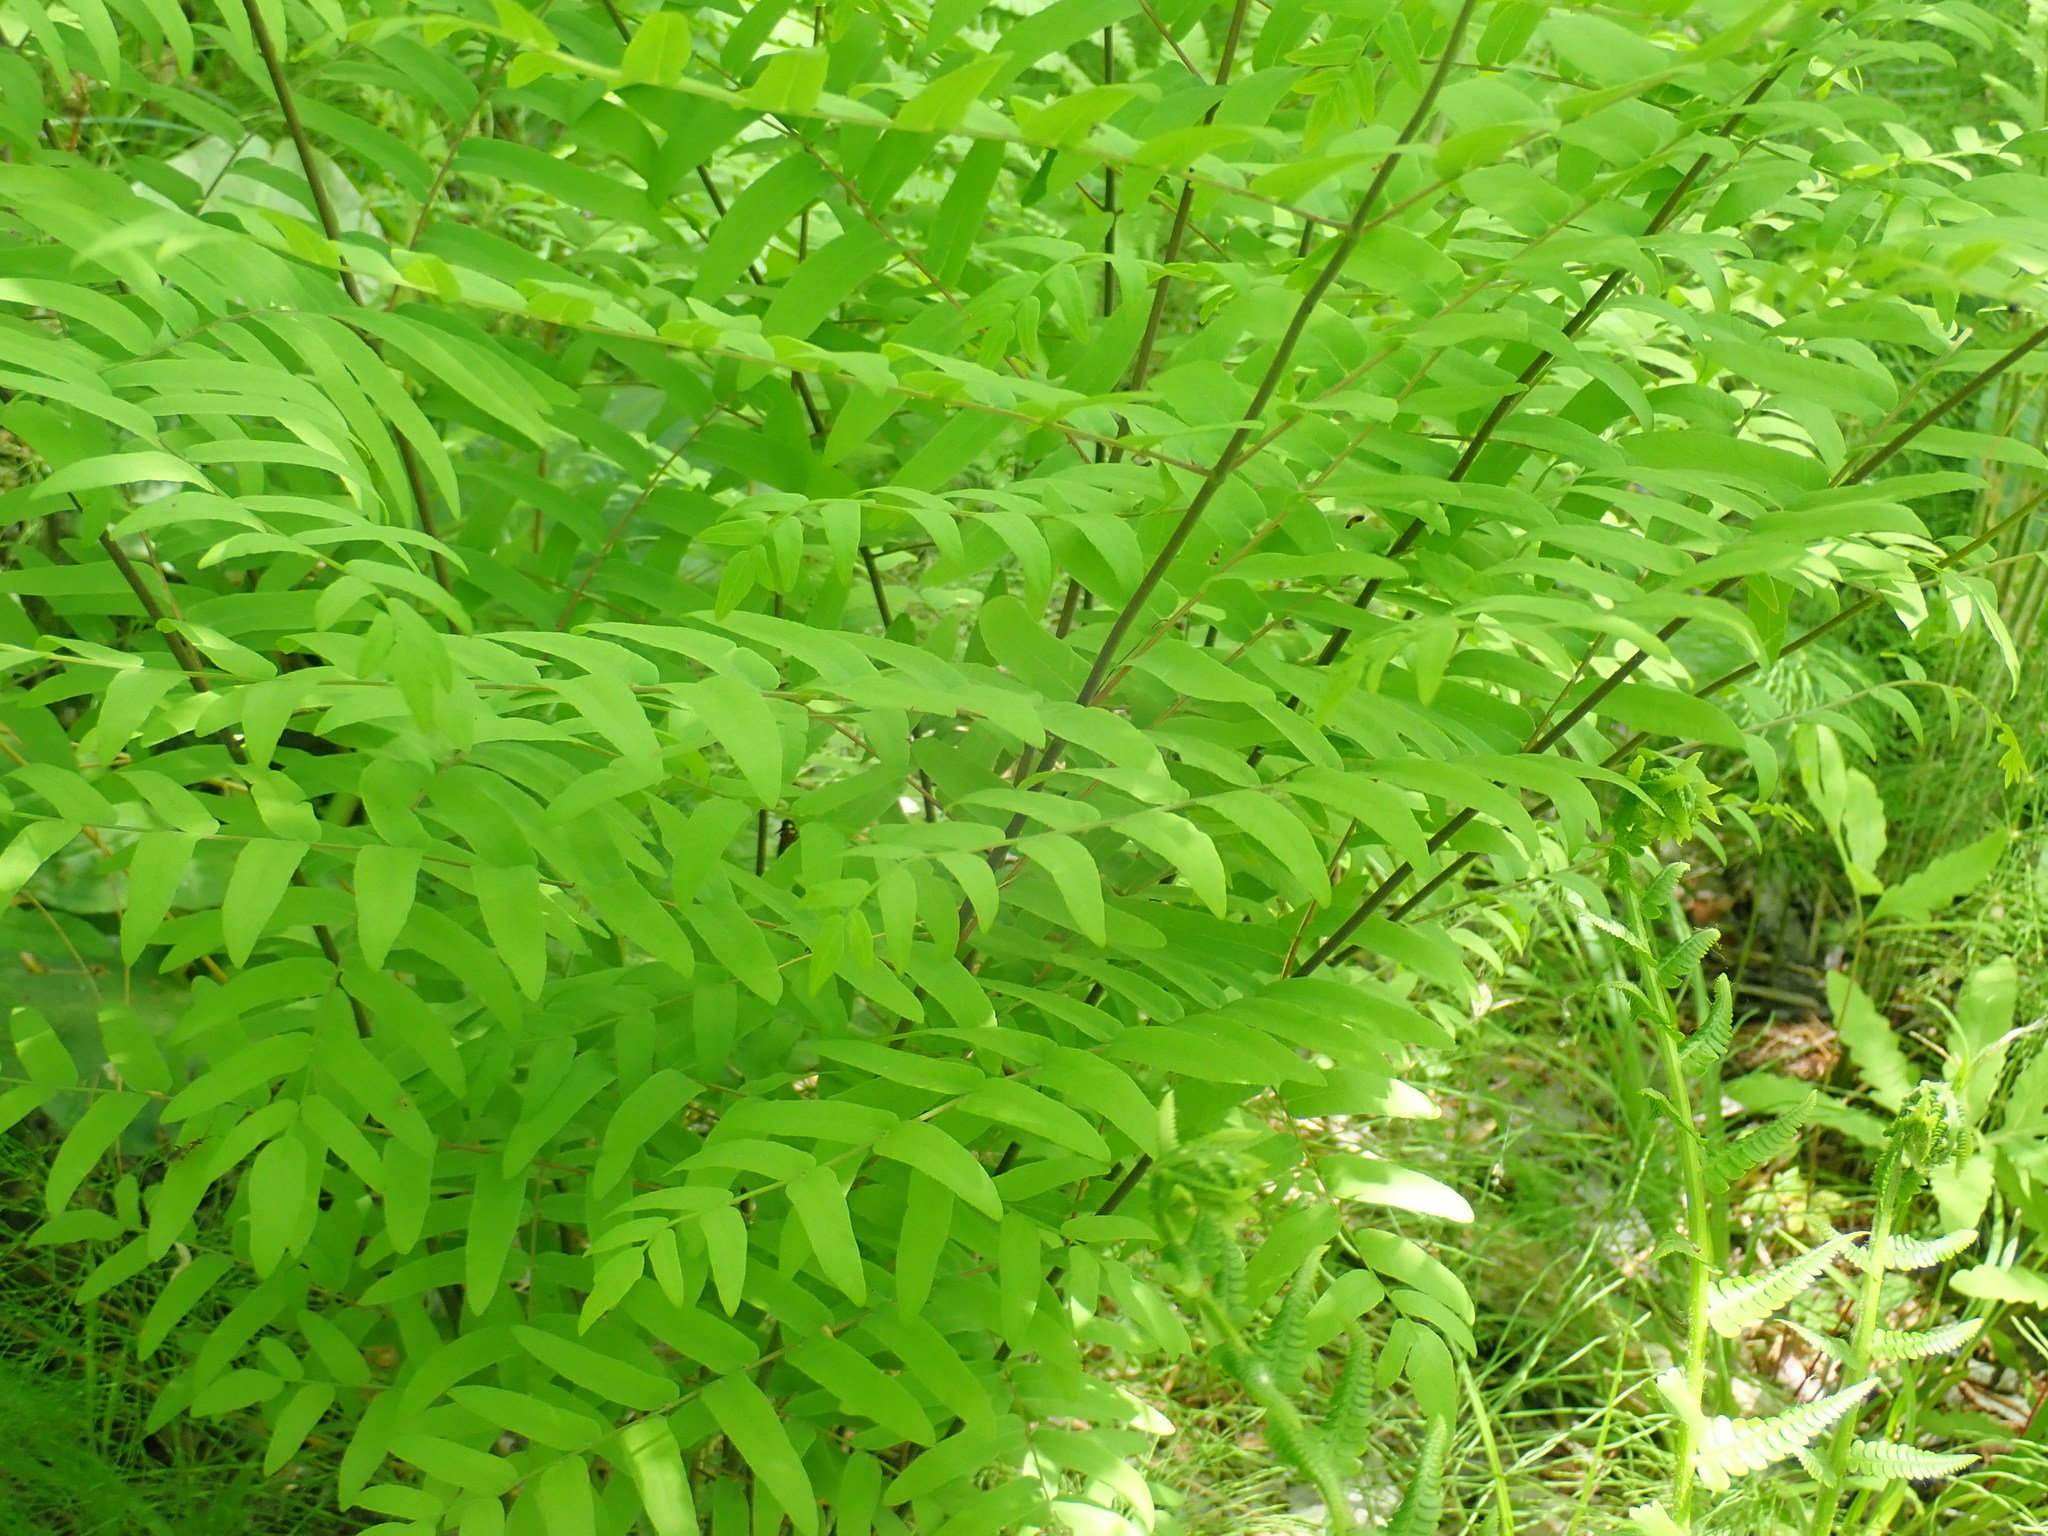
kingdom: Plantae
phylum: Tracheophyta
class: Polypodiopsida
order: Osmundales
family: Osmundaceae
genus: Osmunda
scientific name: Osmunda spectabilis
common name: American royal fern
